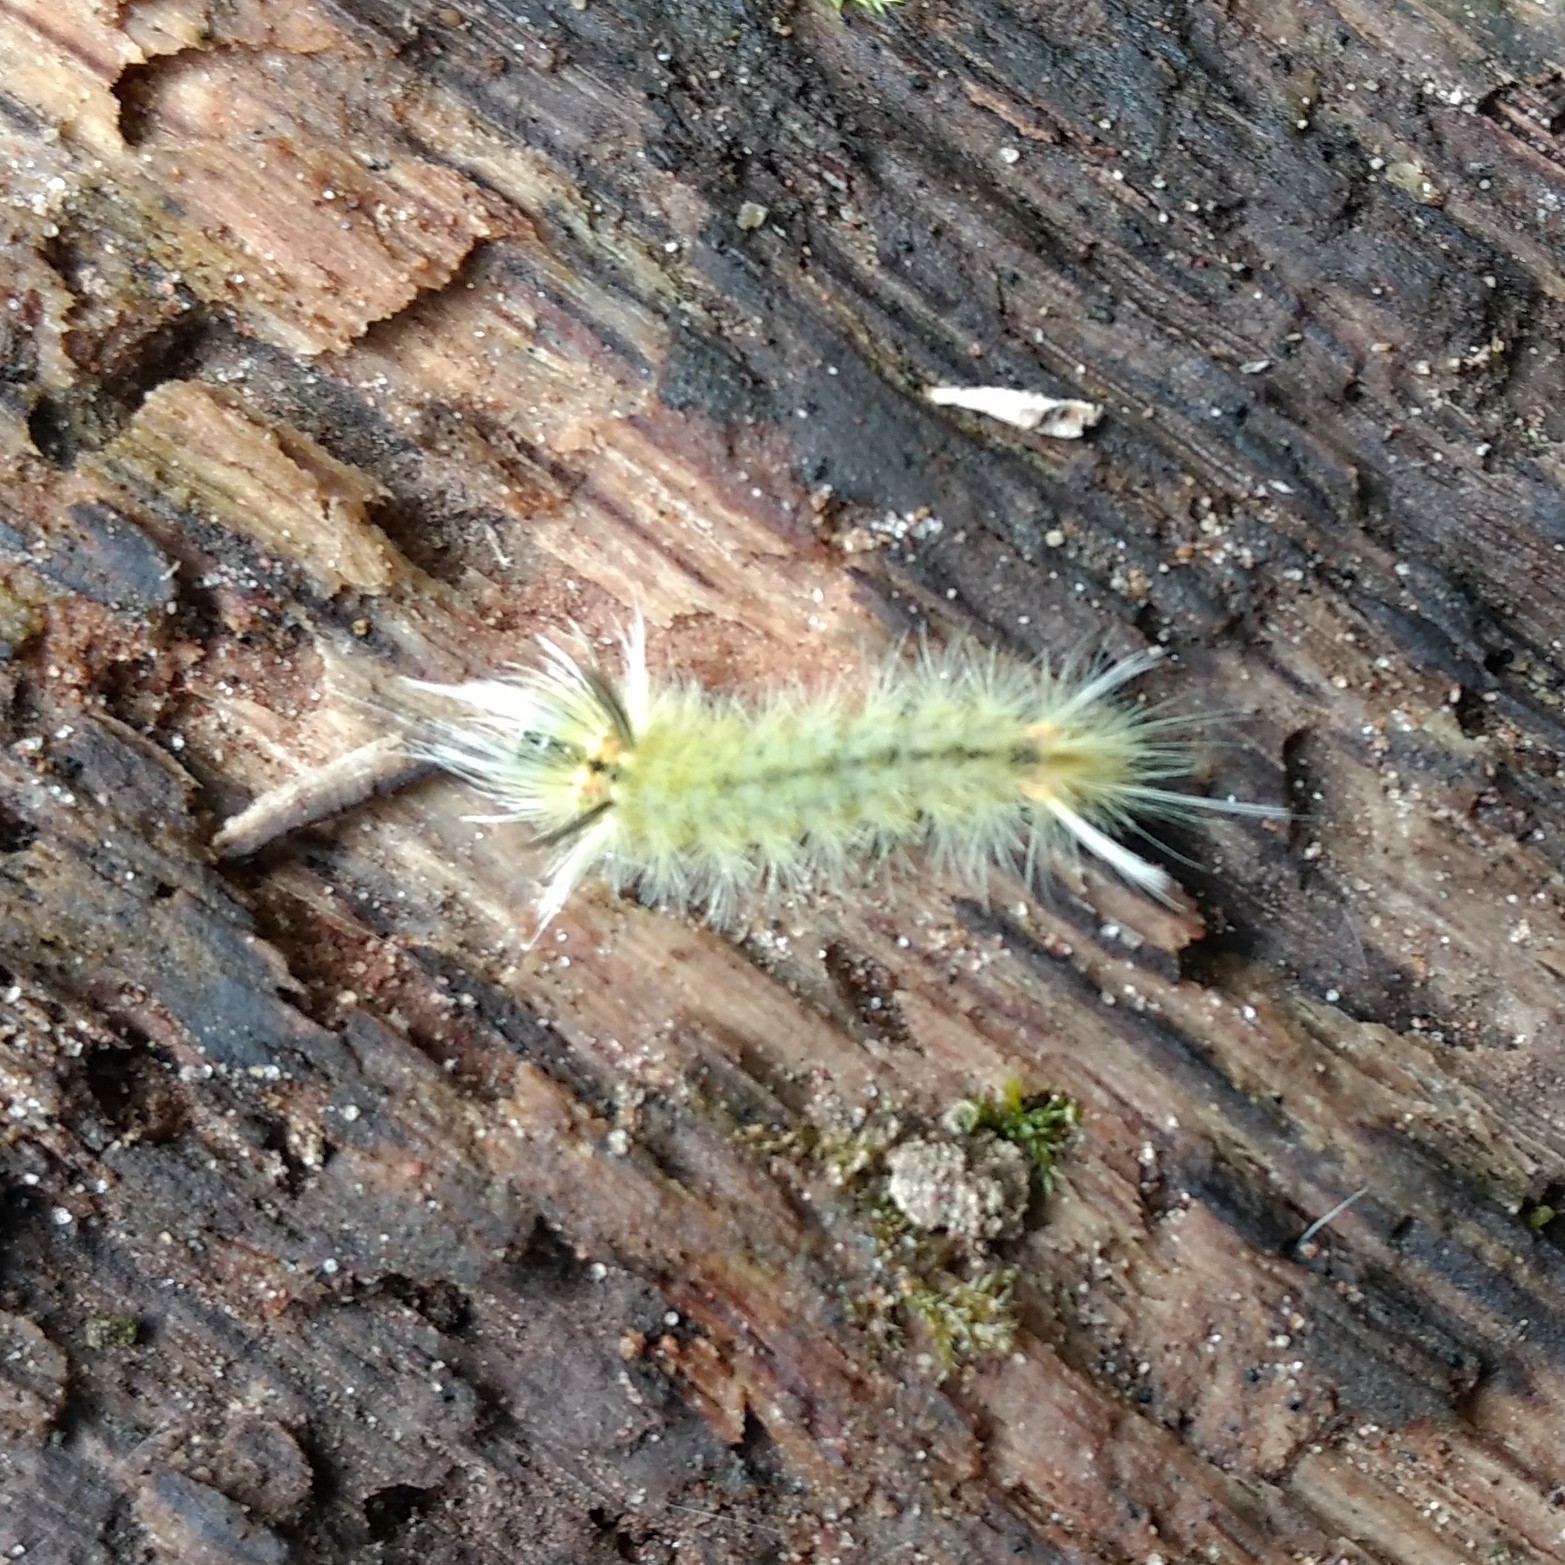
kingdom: Animalia
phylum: Arthropoda
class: Insecta
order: Lepidoptera
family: Erebidae
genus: Halysidota
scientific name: Halysidota tessellaris
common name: Banded tussock moth
